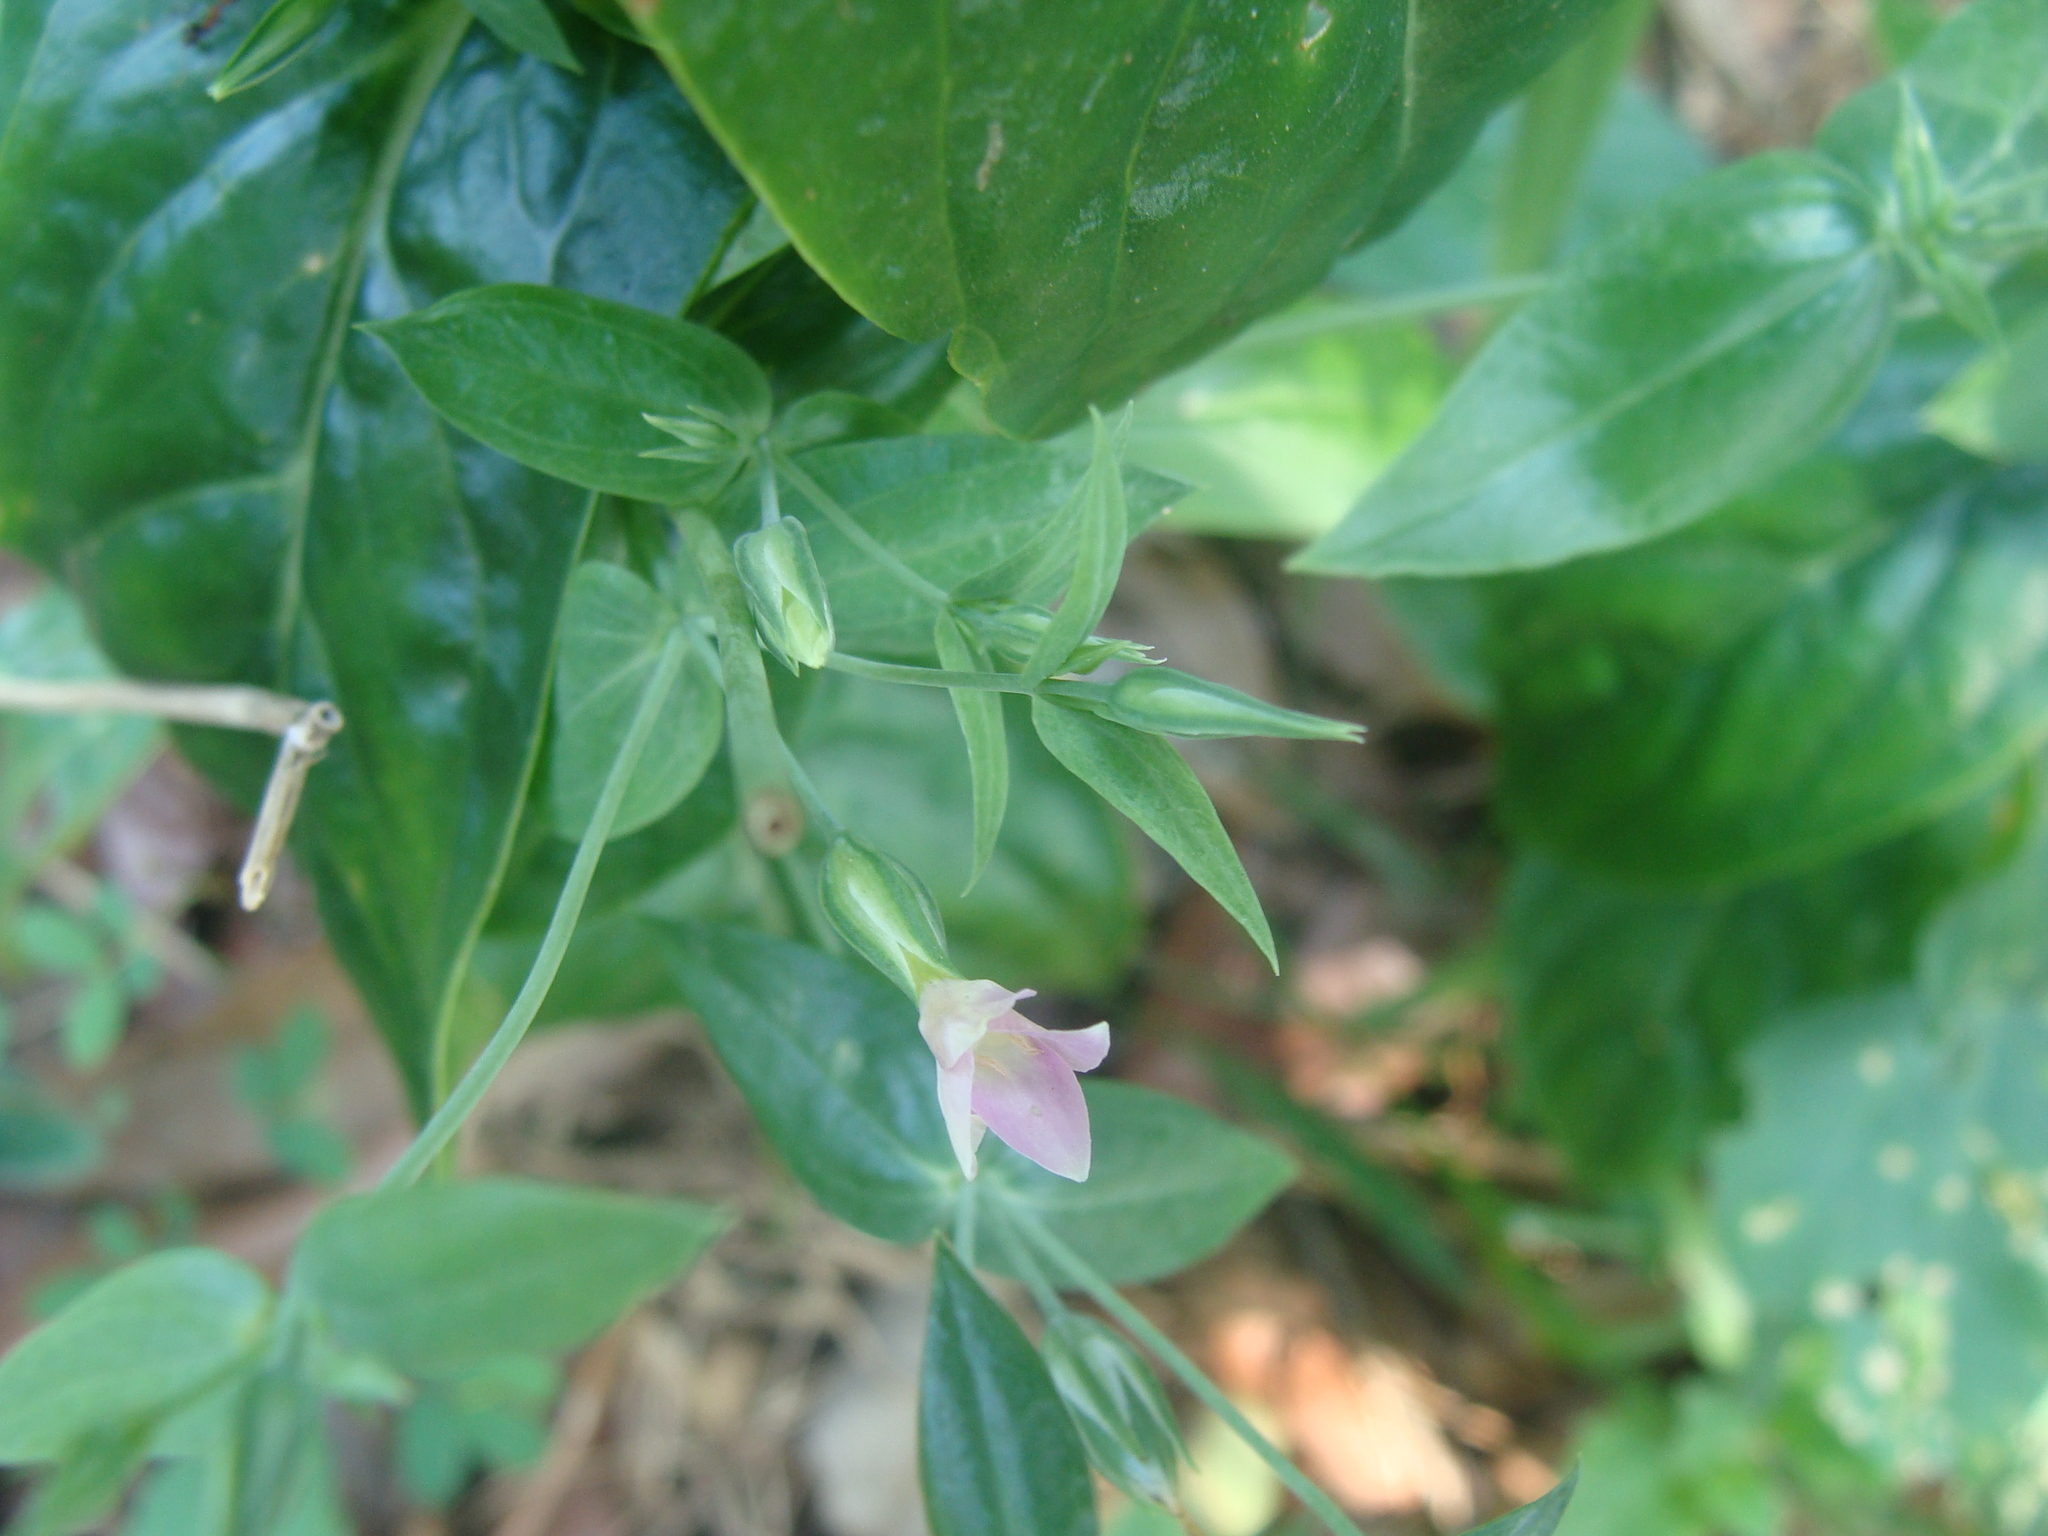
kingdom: Plantae
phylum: Tracheophyta
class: Magnoliopsida
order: Gentianales
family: Gentianaceae
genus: Schultesia
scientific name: Schultesia lisianthoides
